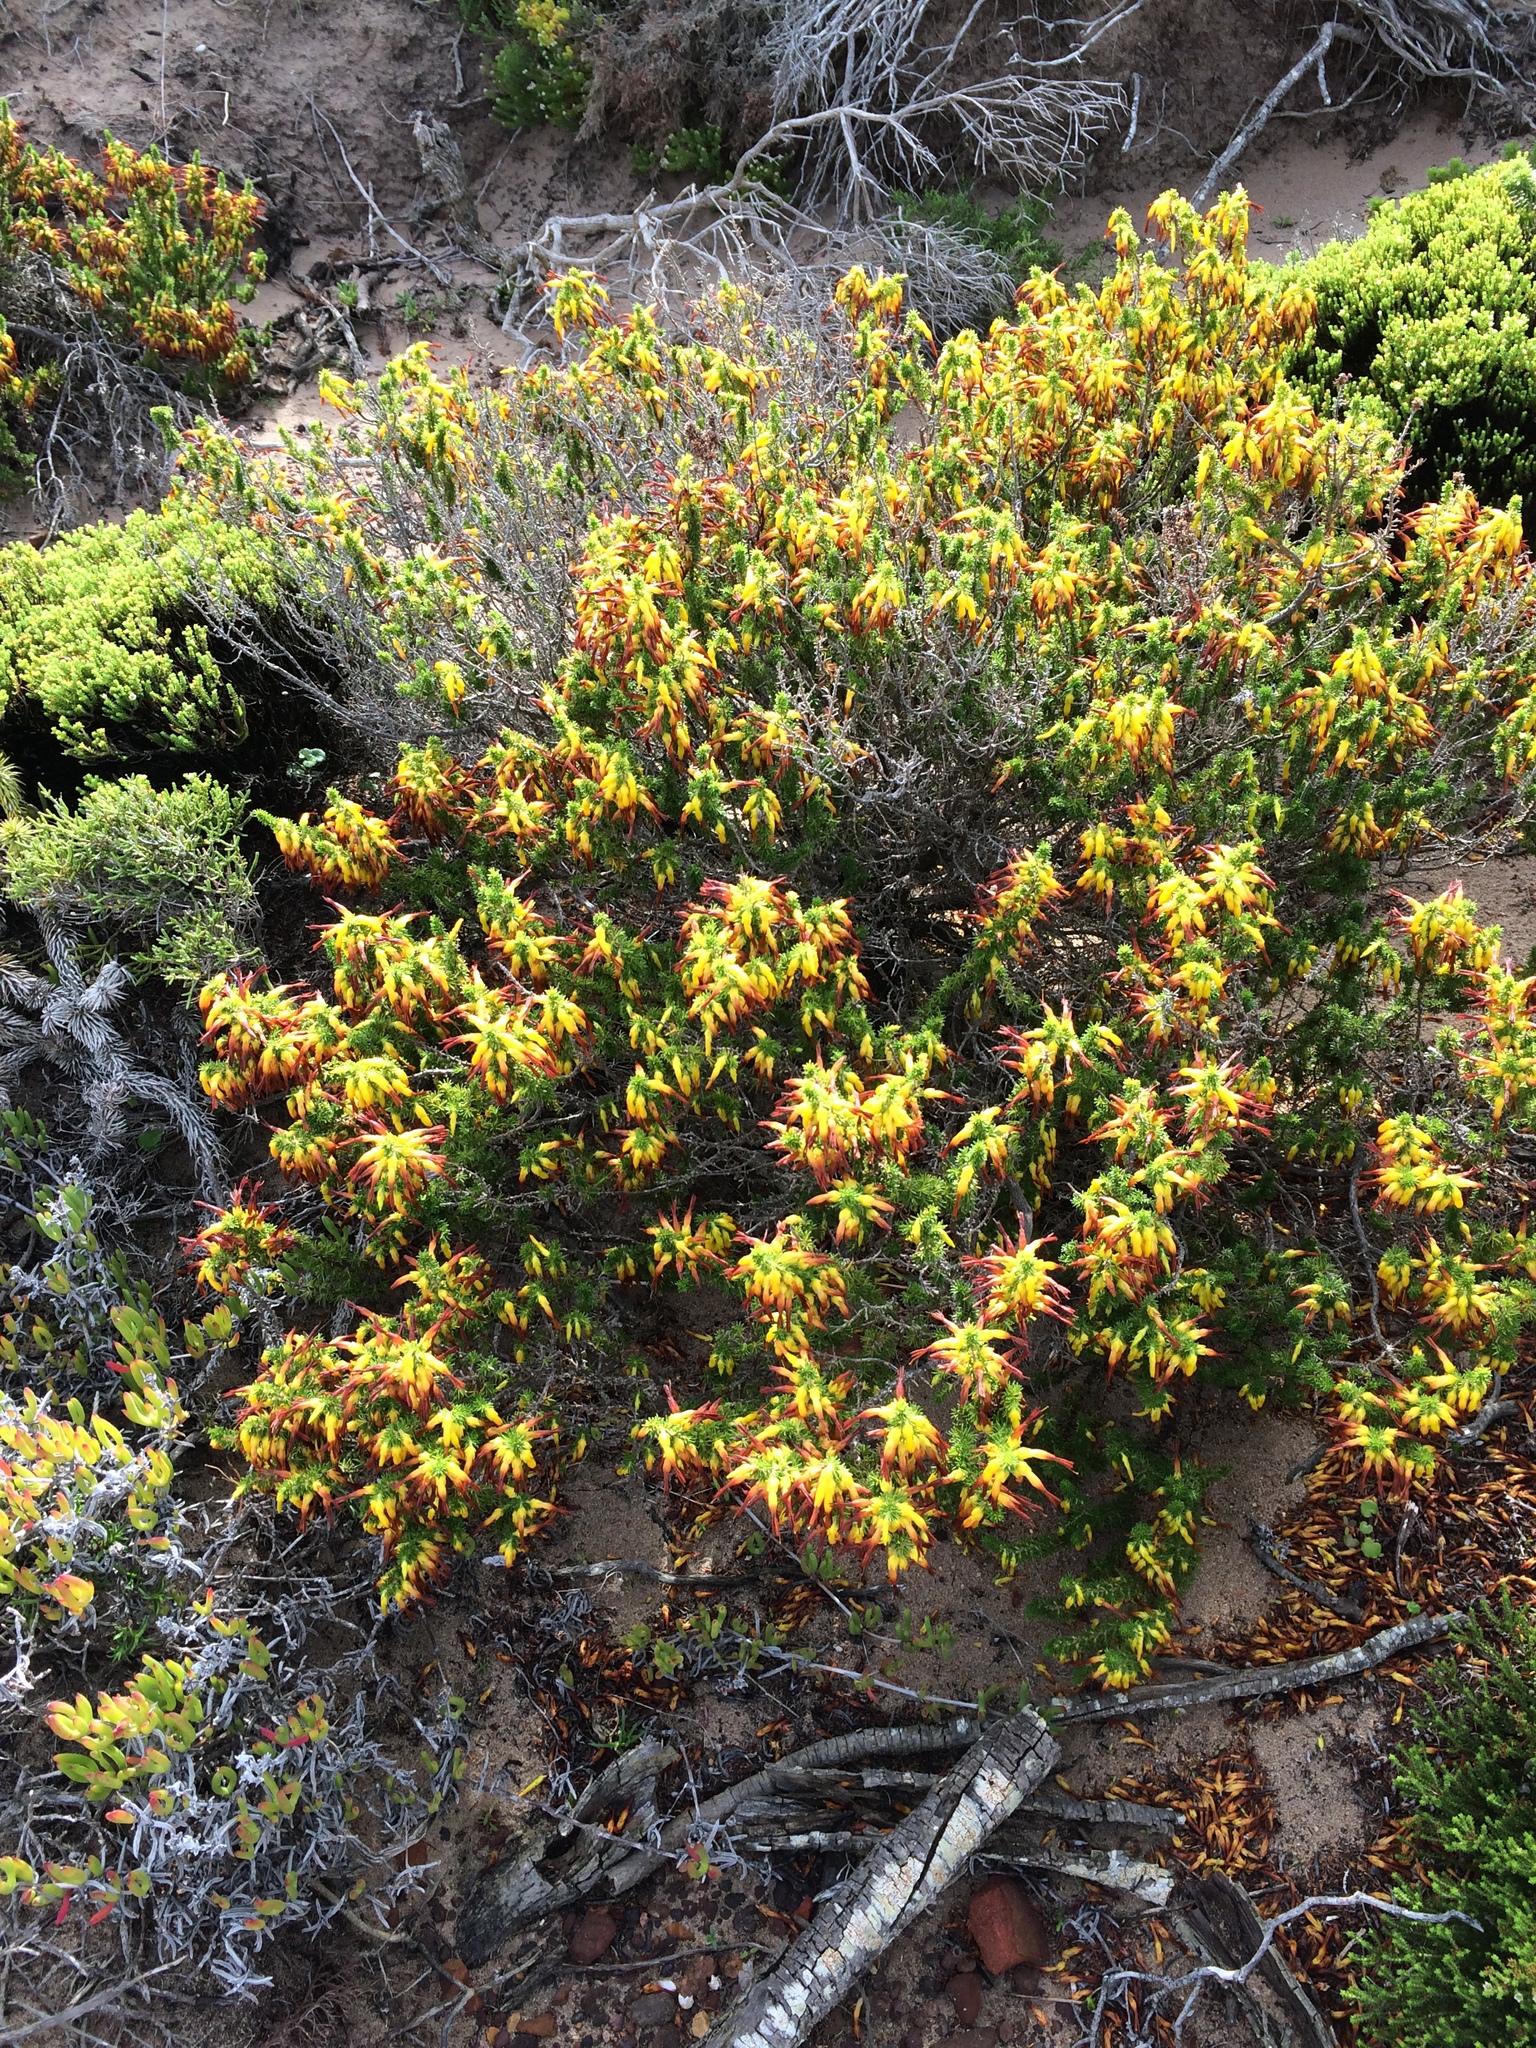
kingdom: Plantae
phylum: Tracheophyta
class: Magnoliopsida
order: Ericales
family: Ericaceae
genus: Erica
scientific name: Erica coccinea
